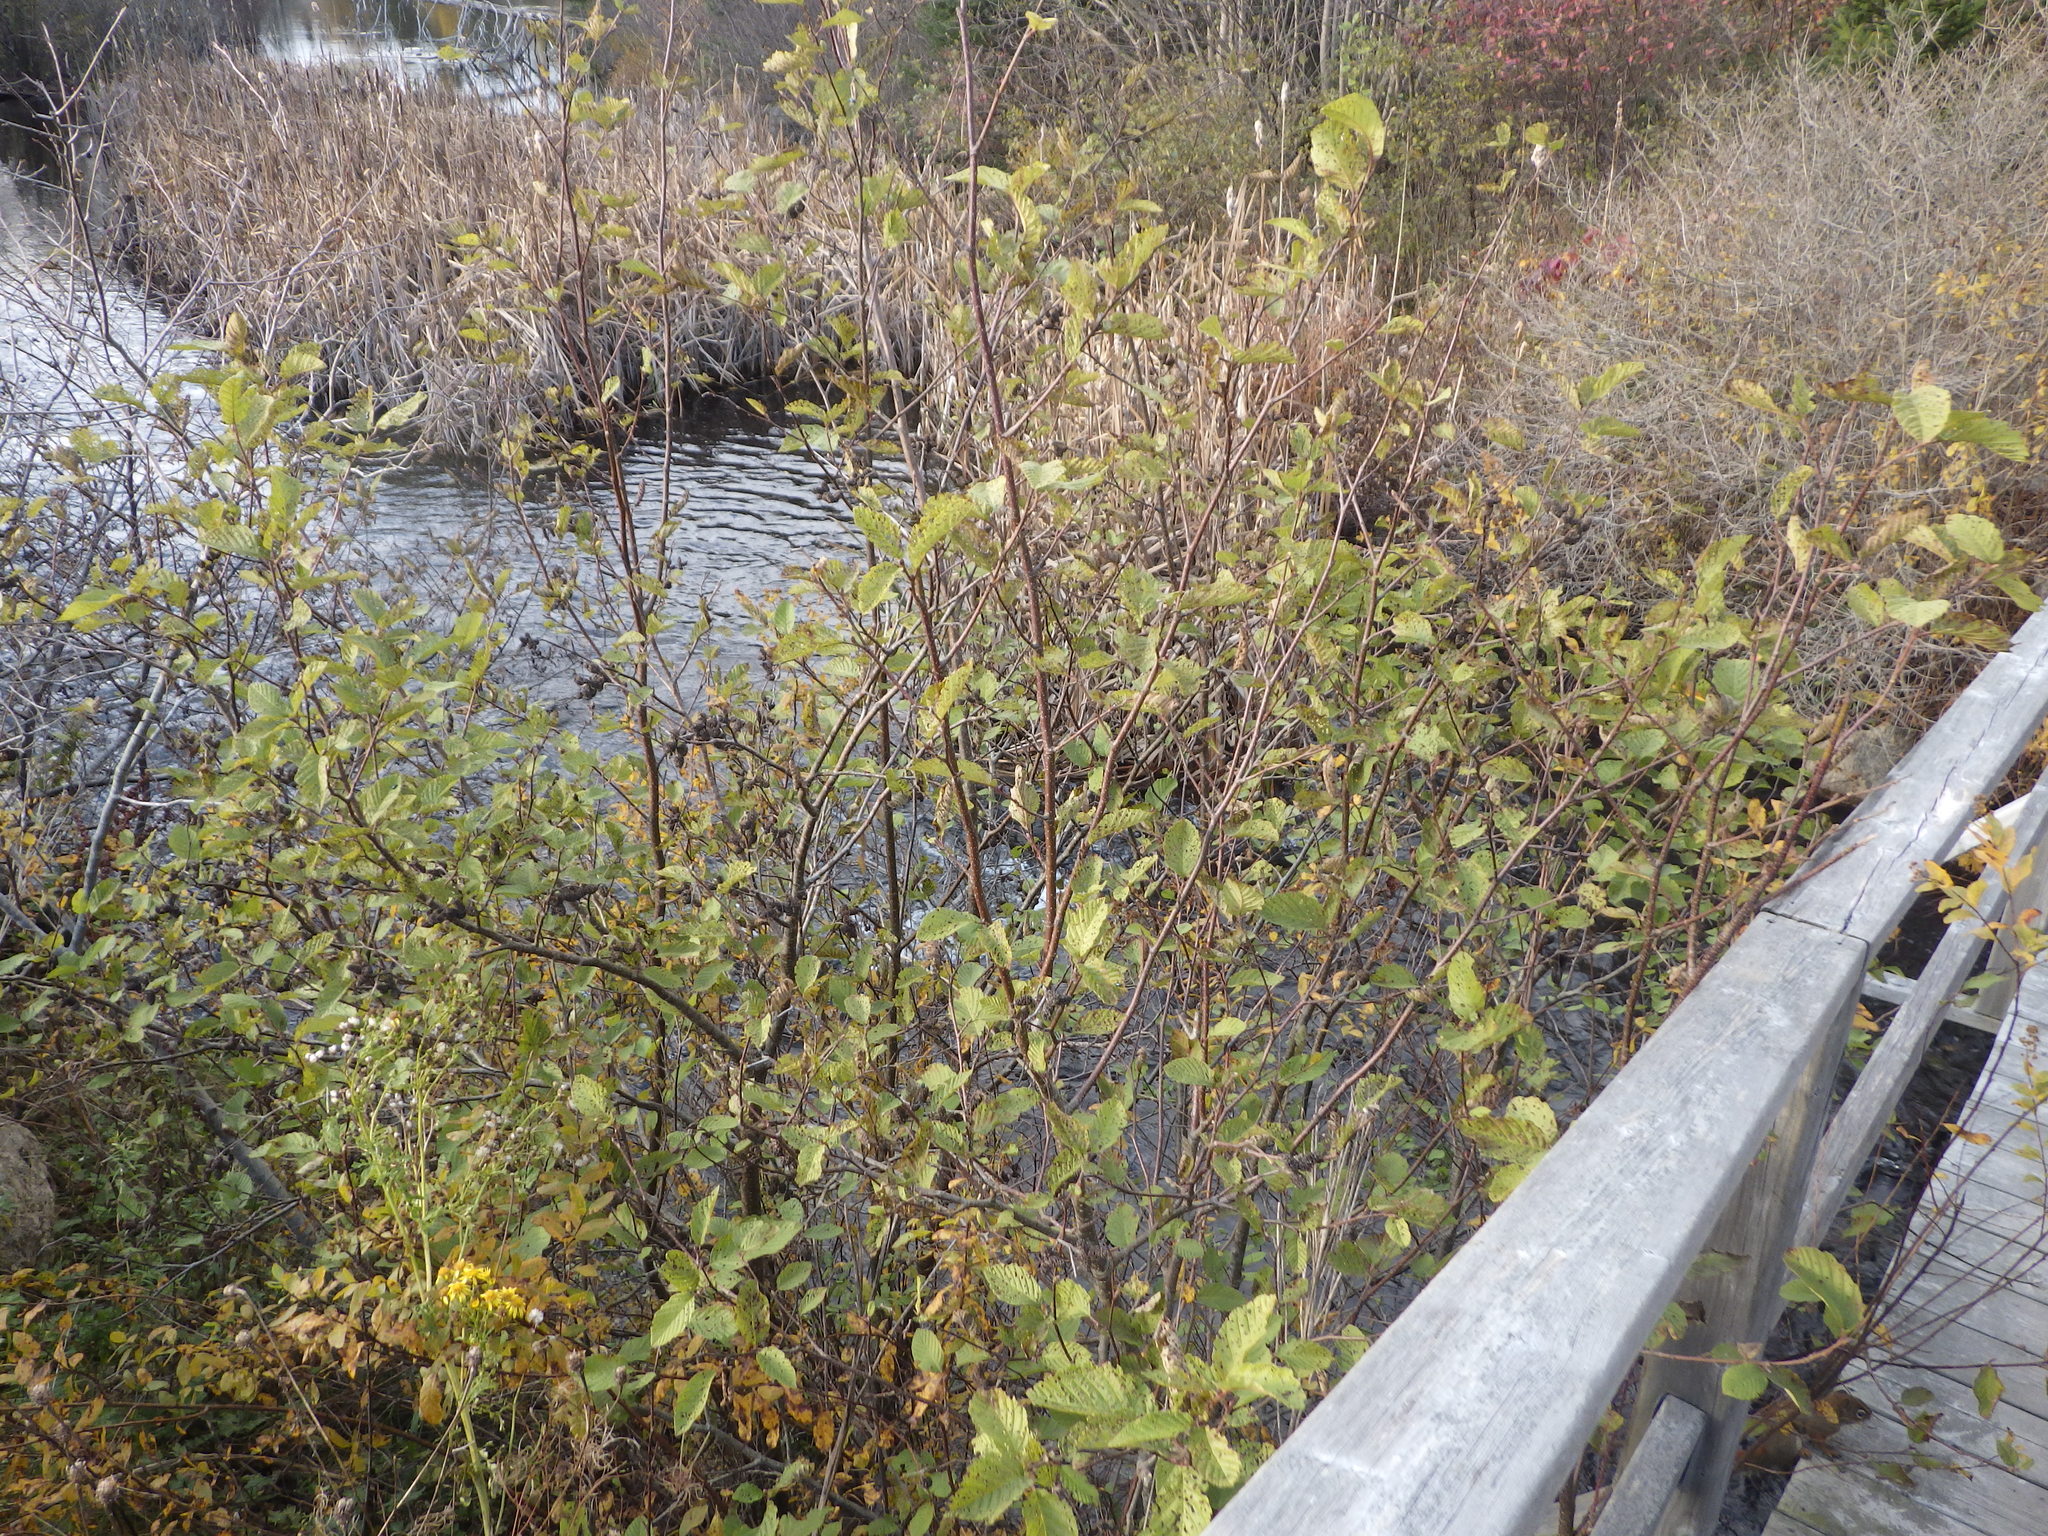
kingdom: Plantae
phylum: Tracheophyta
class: Magnoliopsida
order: Fagales
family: Betulaceae
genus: Alnus
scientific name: Alnus incana
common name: Grey alder
